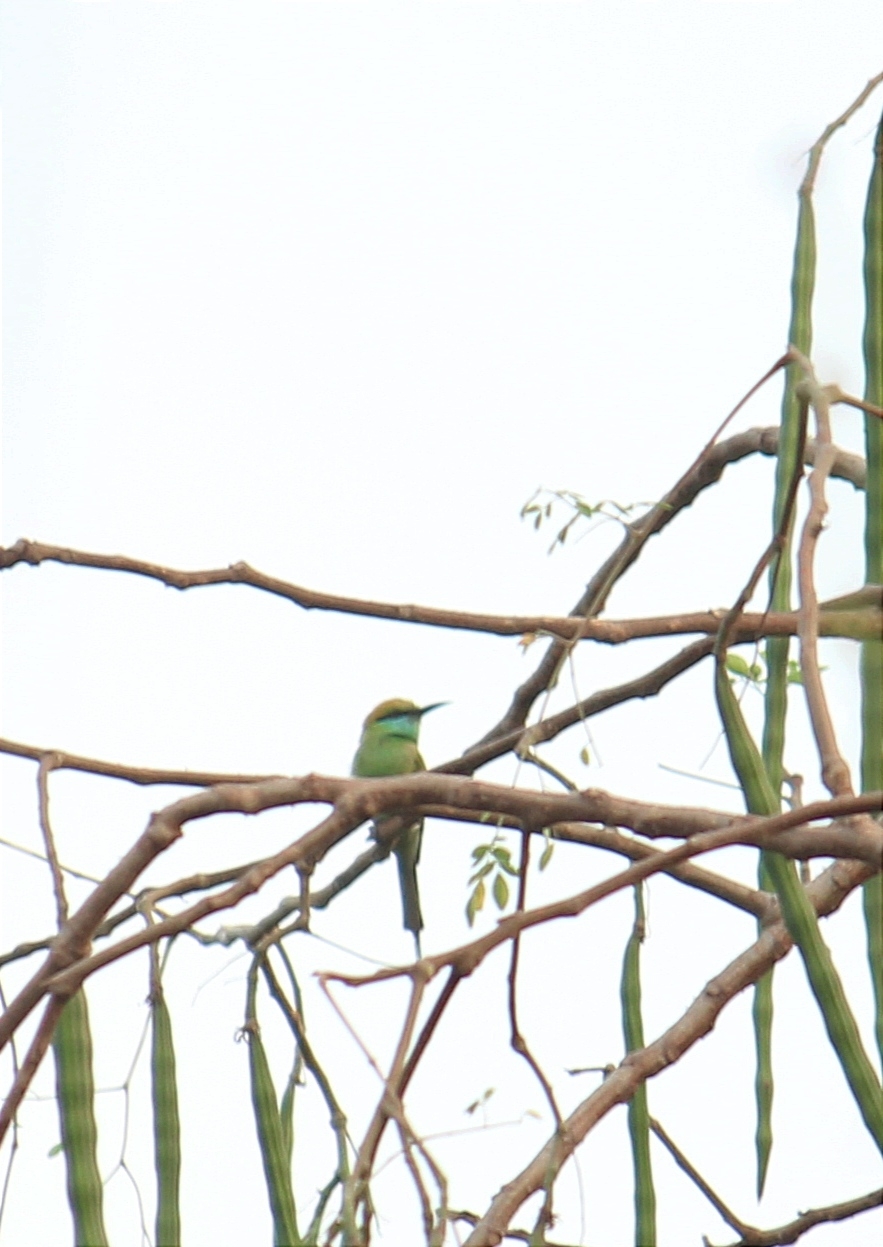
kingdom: Animalia
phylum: Chordata
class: Aves
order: Coraciiformes
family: Meropidae
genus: Merops
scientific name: Merops orientalis
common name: Green bee-eater
